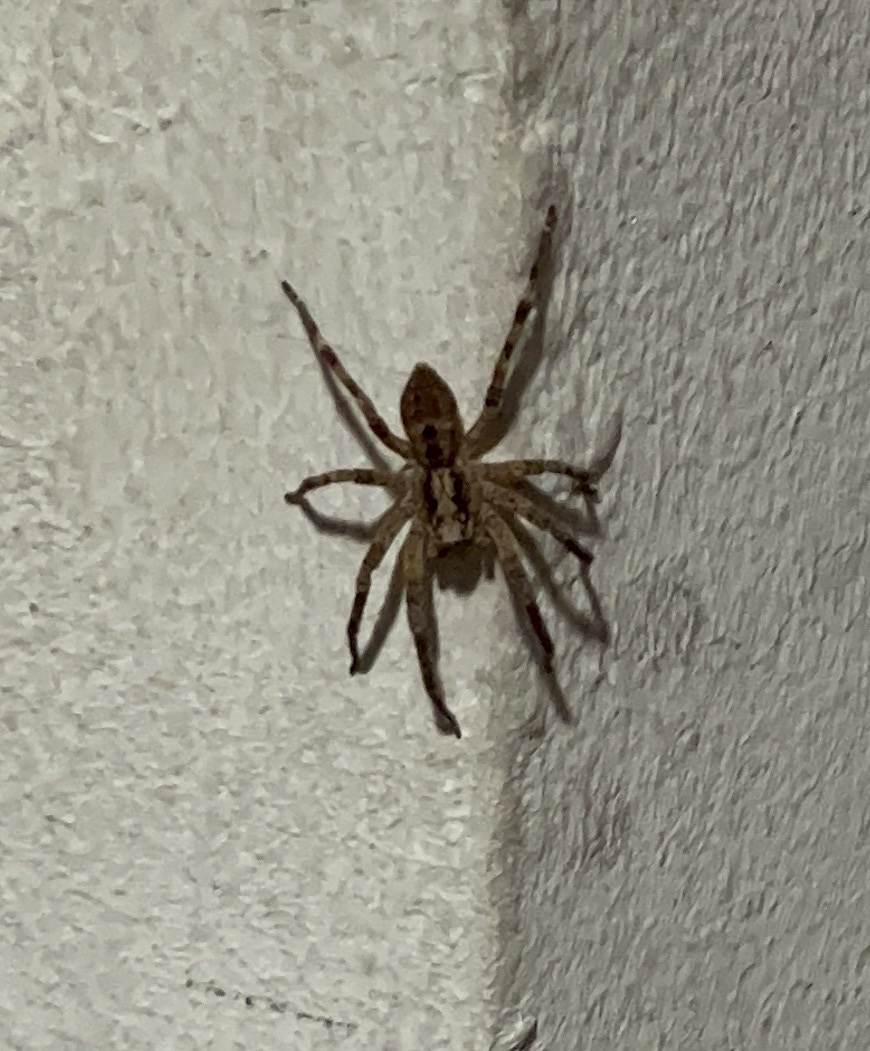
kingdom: Animalia
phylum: Arthropoda
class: Arachnida
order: Araneae
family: Zoropsidae
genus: Zoropsis
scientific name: Zoropsis spinimana
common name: Zoropsid spider
